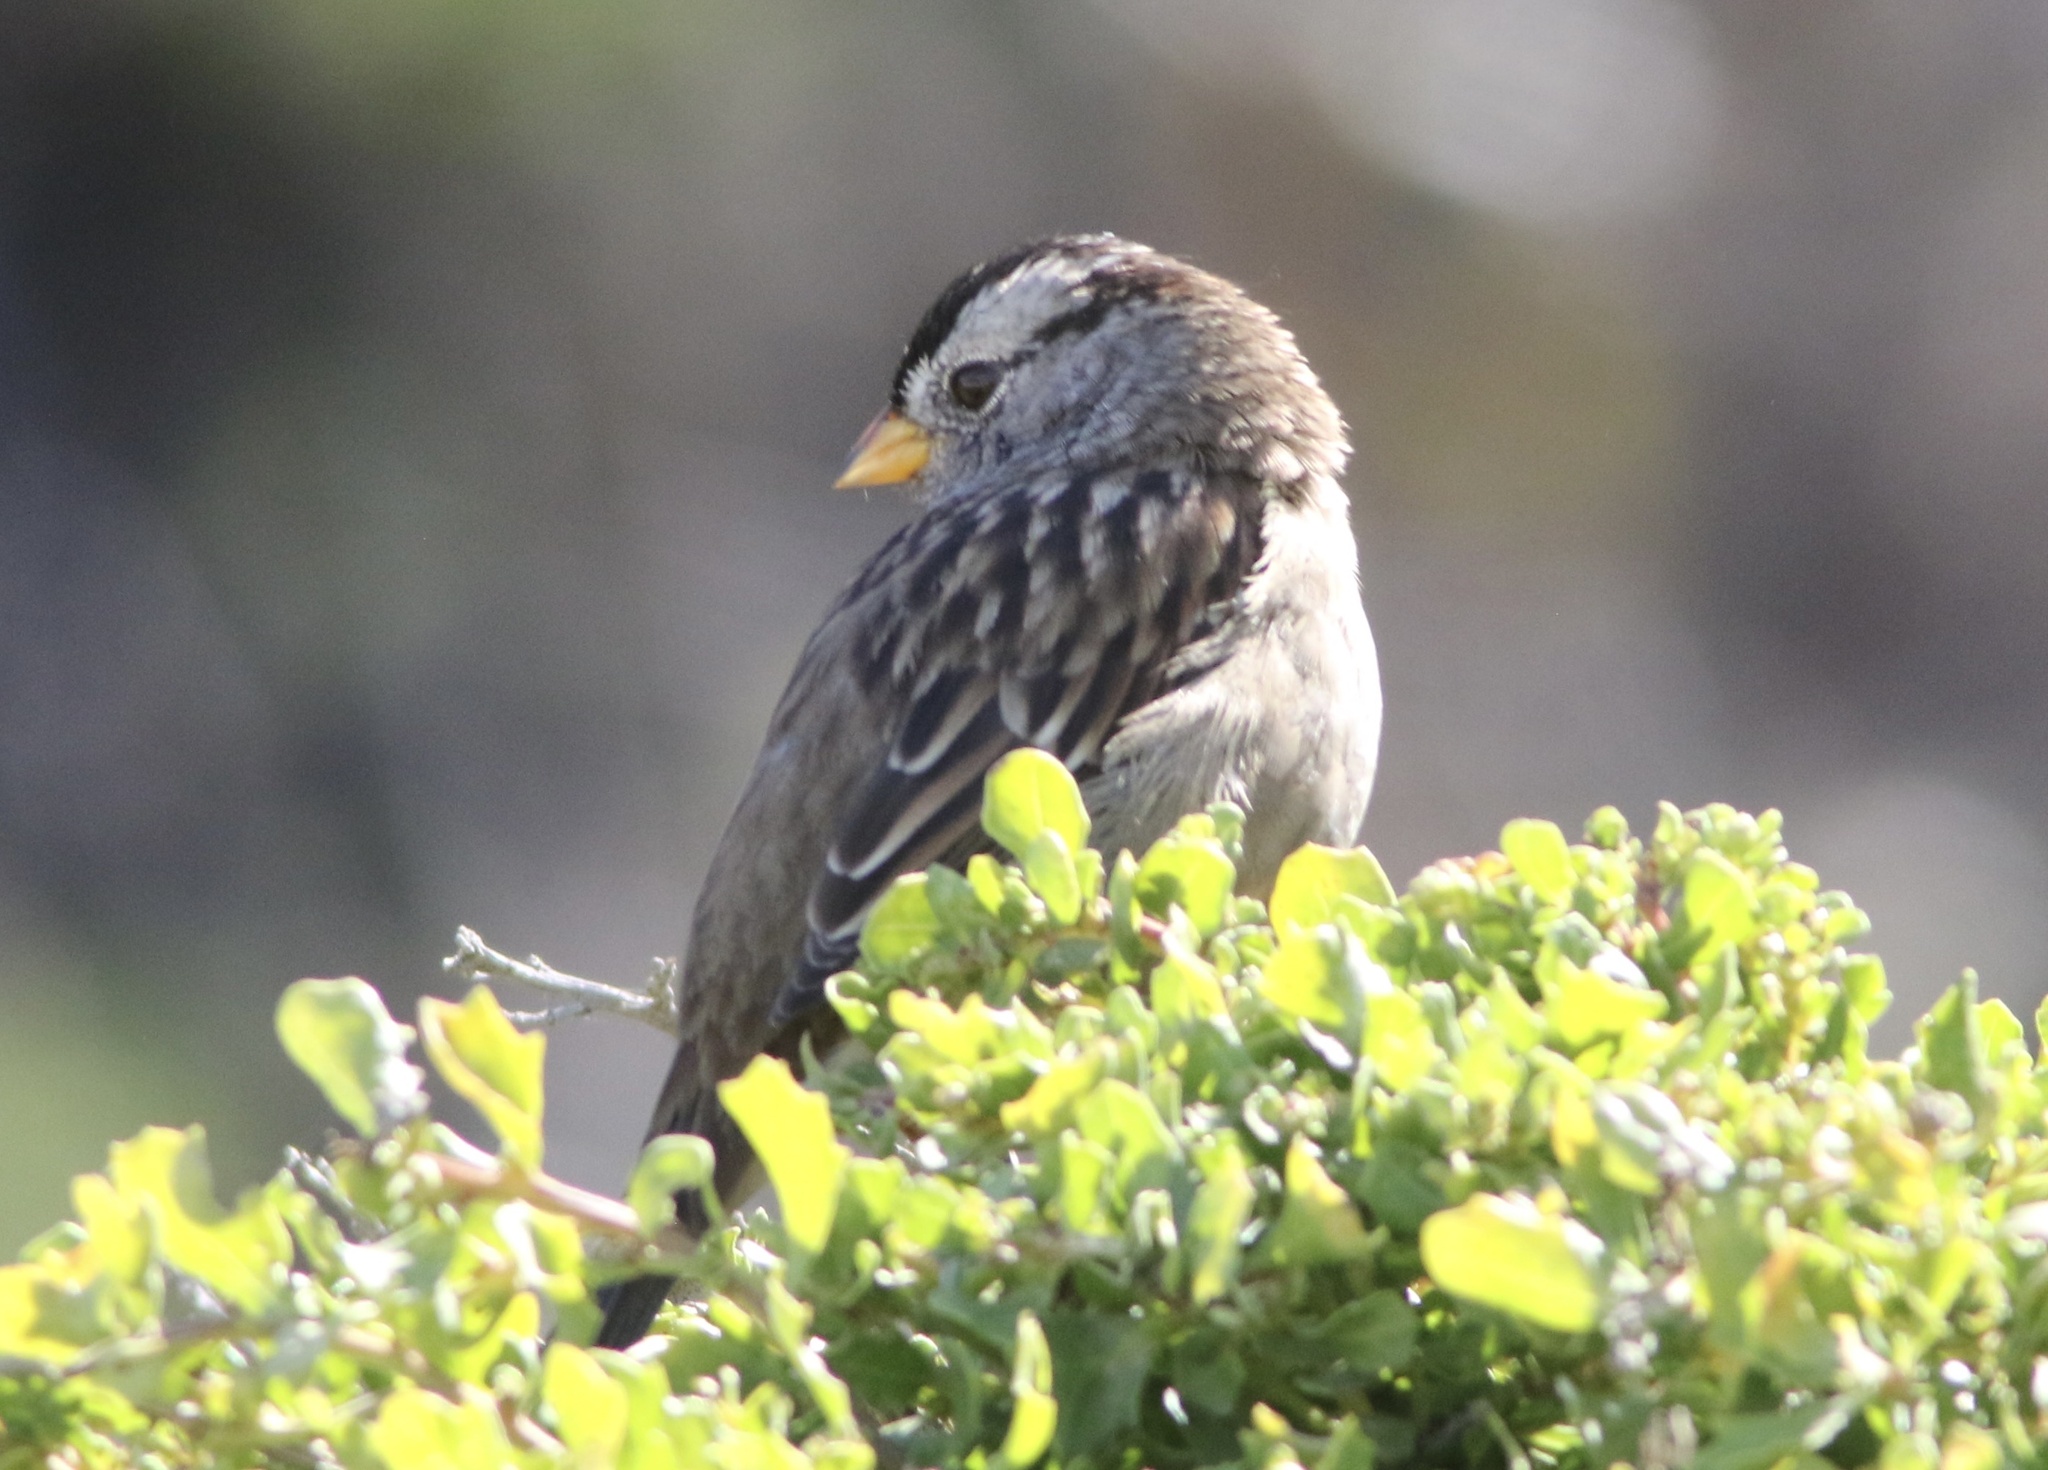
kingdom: Animalia
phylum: Chordata
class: Aves
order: Passeriformes
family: Passerellidae
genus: Zonotrichia
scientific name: Zonotrichia leucophrys
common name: White-crowned sparrow
